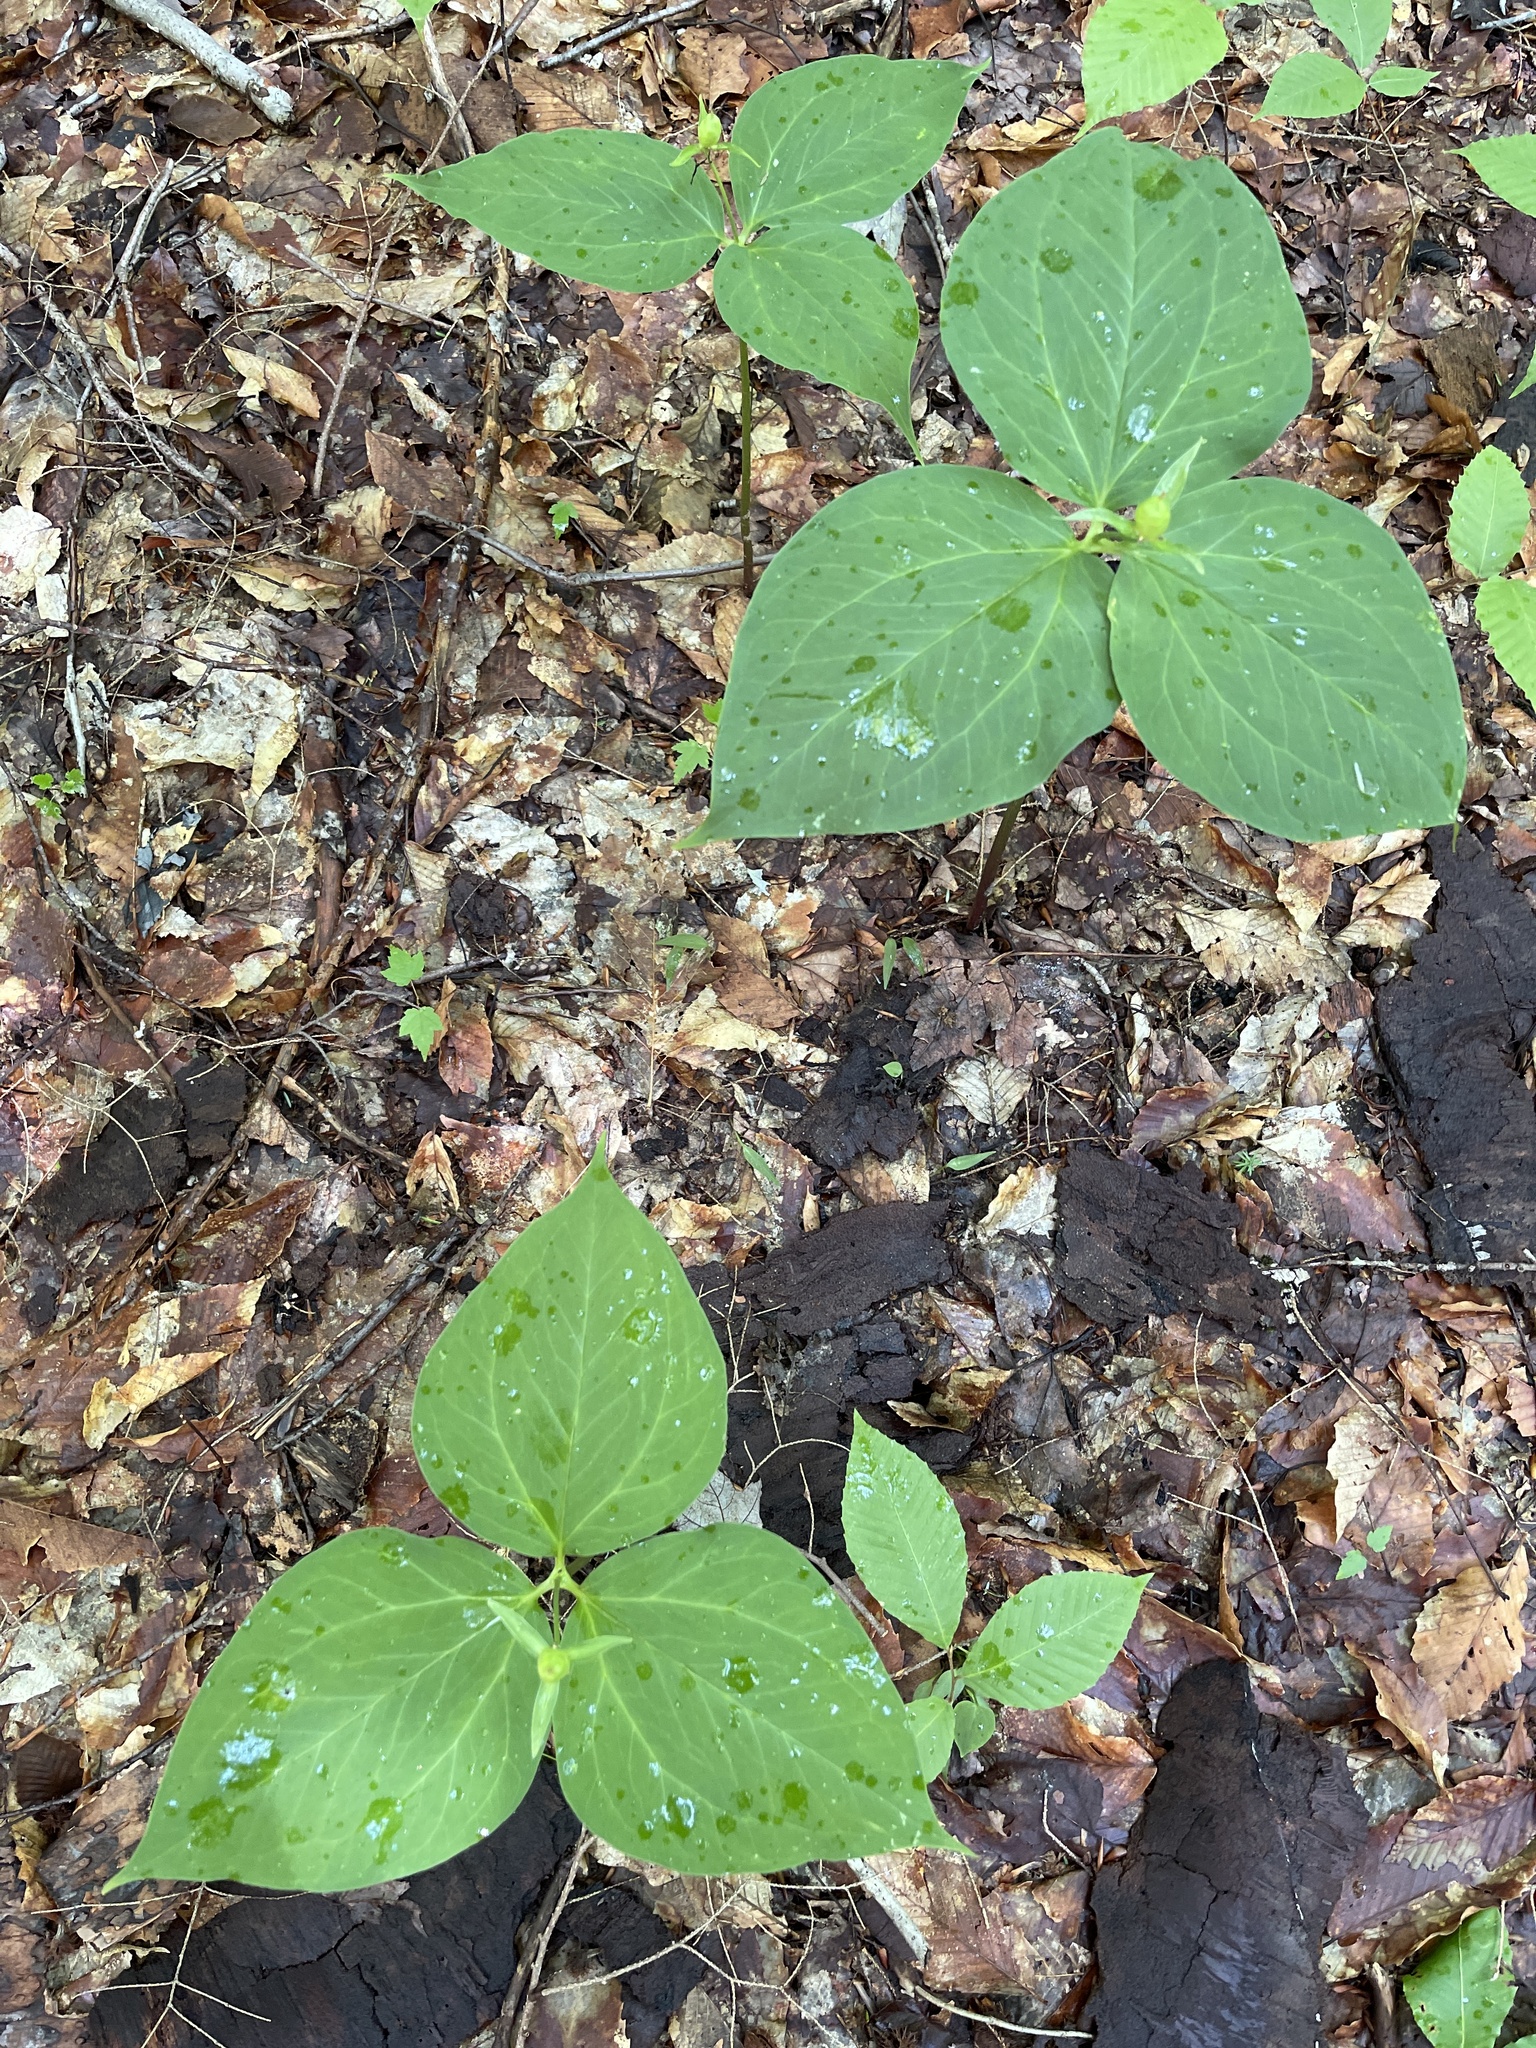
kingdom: Plantae
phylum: Tracheophyta
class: Liliopsida
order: Liliales
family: Melanthiaceae
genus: Trillium
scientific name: Trillium undulatum
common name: Paint trillium
